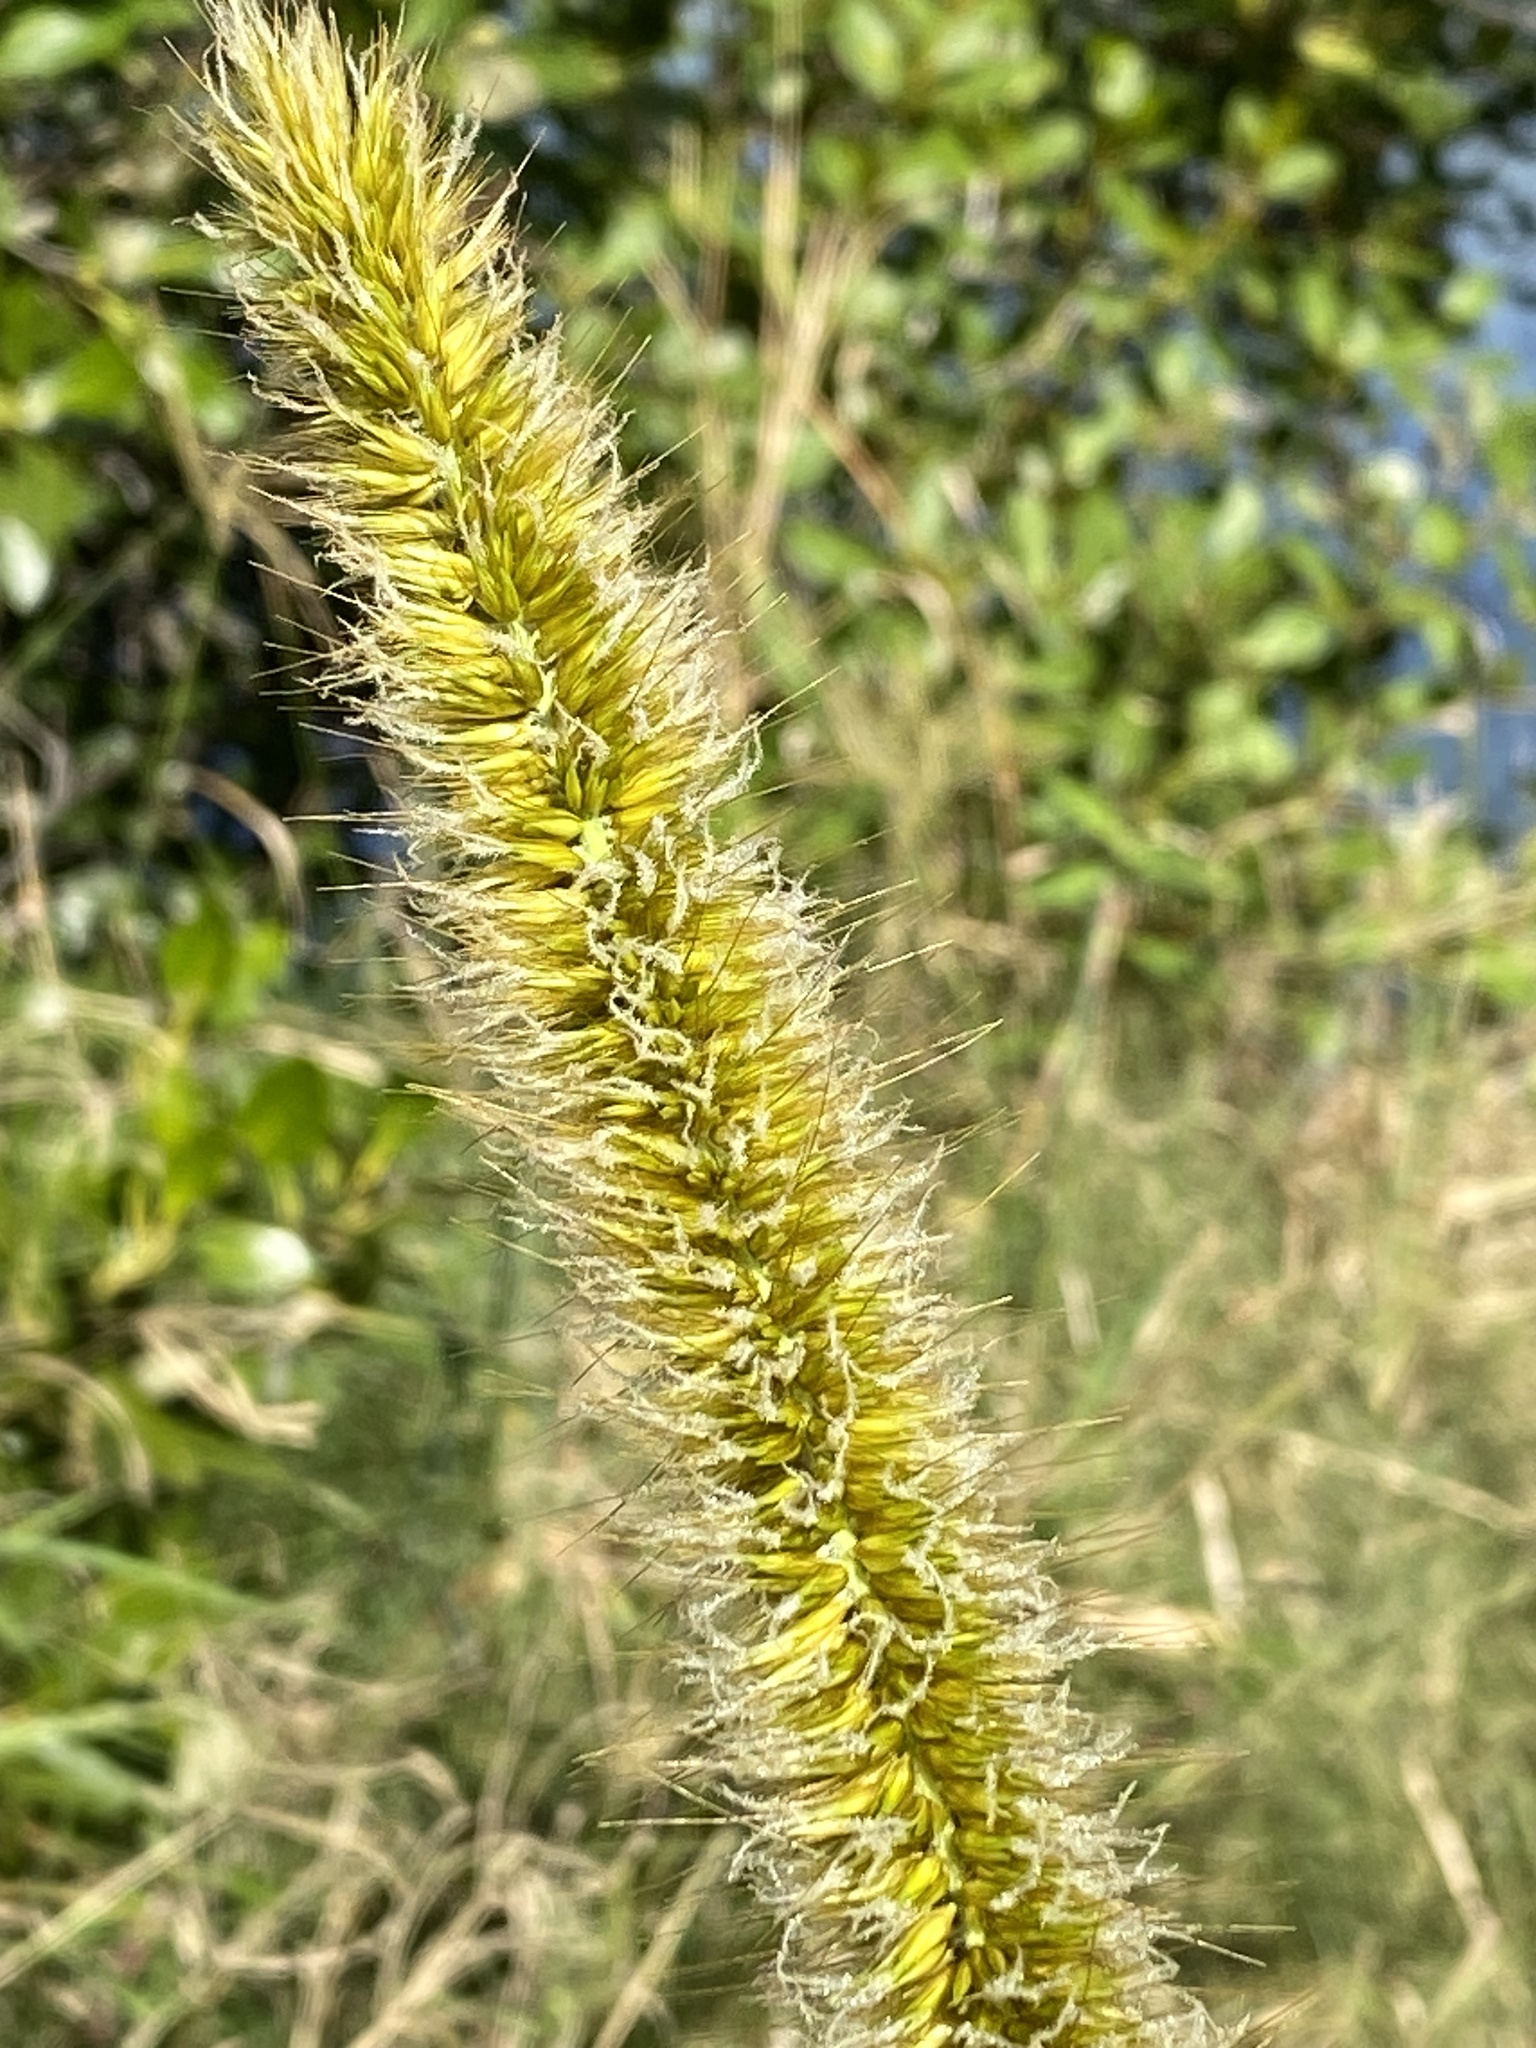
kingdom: Plantae
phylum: Tracheophyta
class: Liliopsida
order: Poales
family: Poaceae
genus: Cenchrus
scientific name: Cenchrus purpureus
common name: Elephant grass
